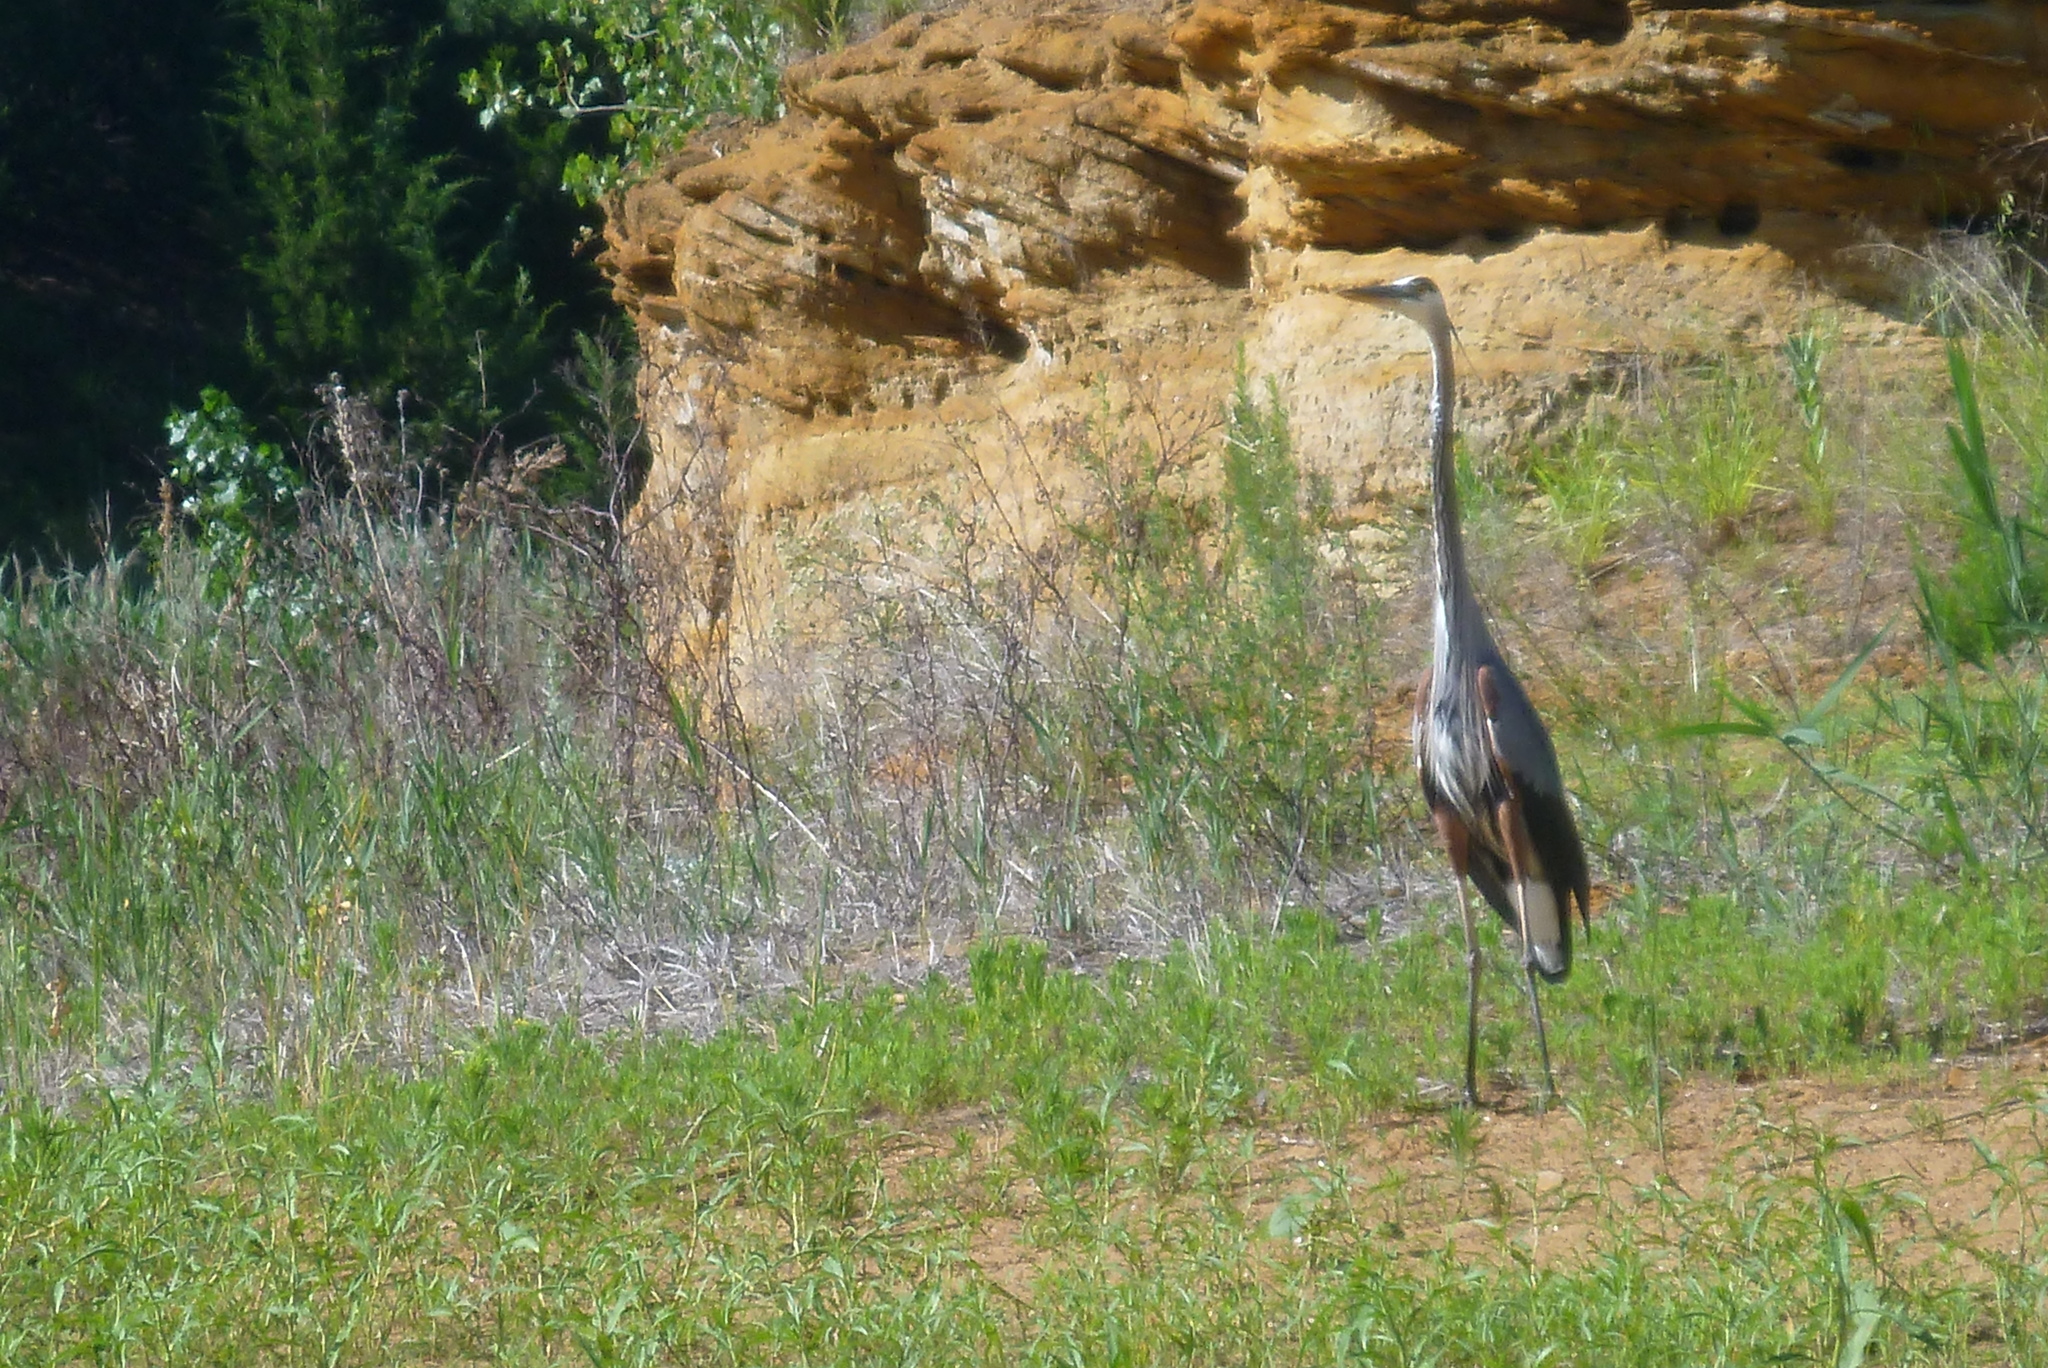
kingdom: Animalia
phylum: Chordata
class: Aves
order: Pelecaniformes
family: Ardeidae
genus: Ardea
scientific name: Ardea herodias
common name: Great blue heron
